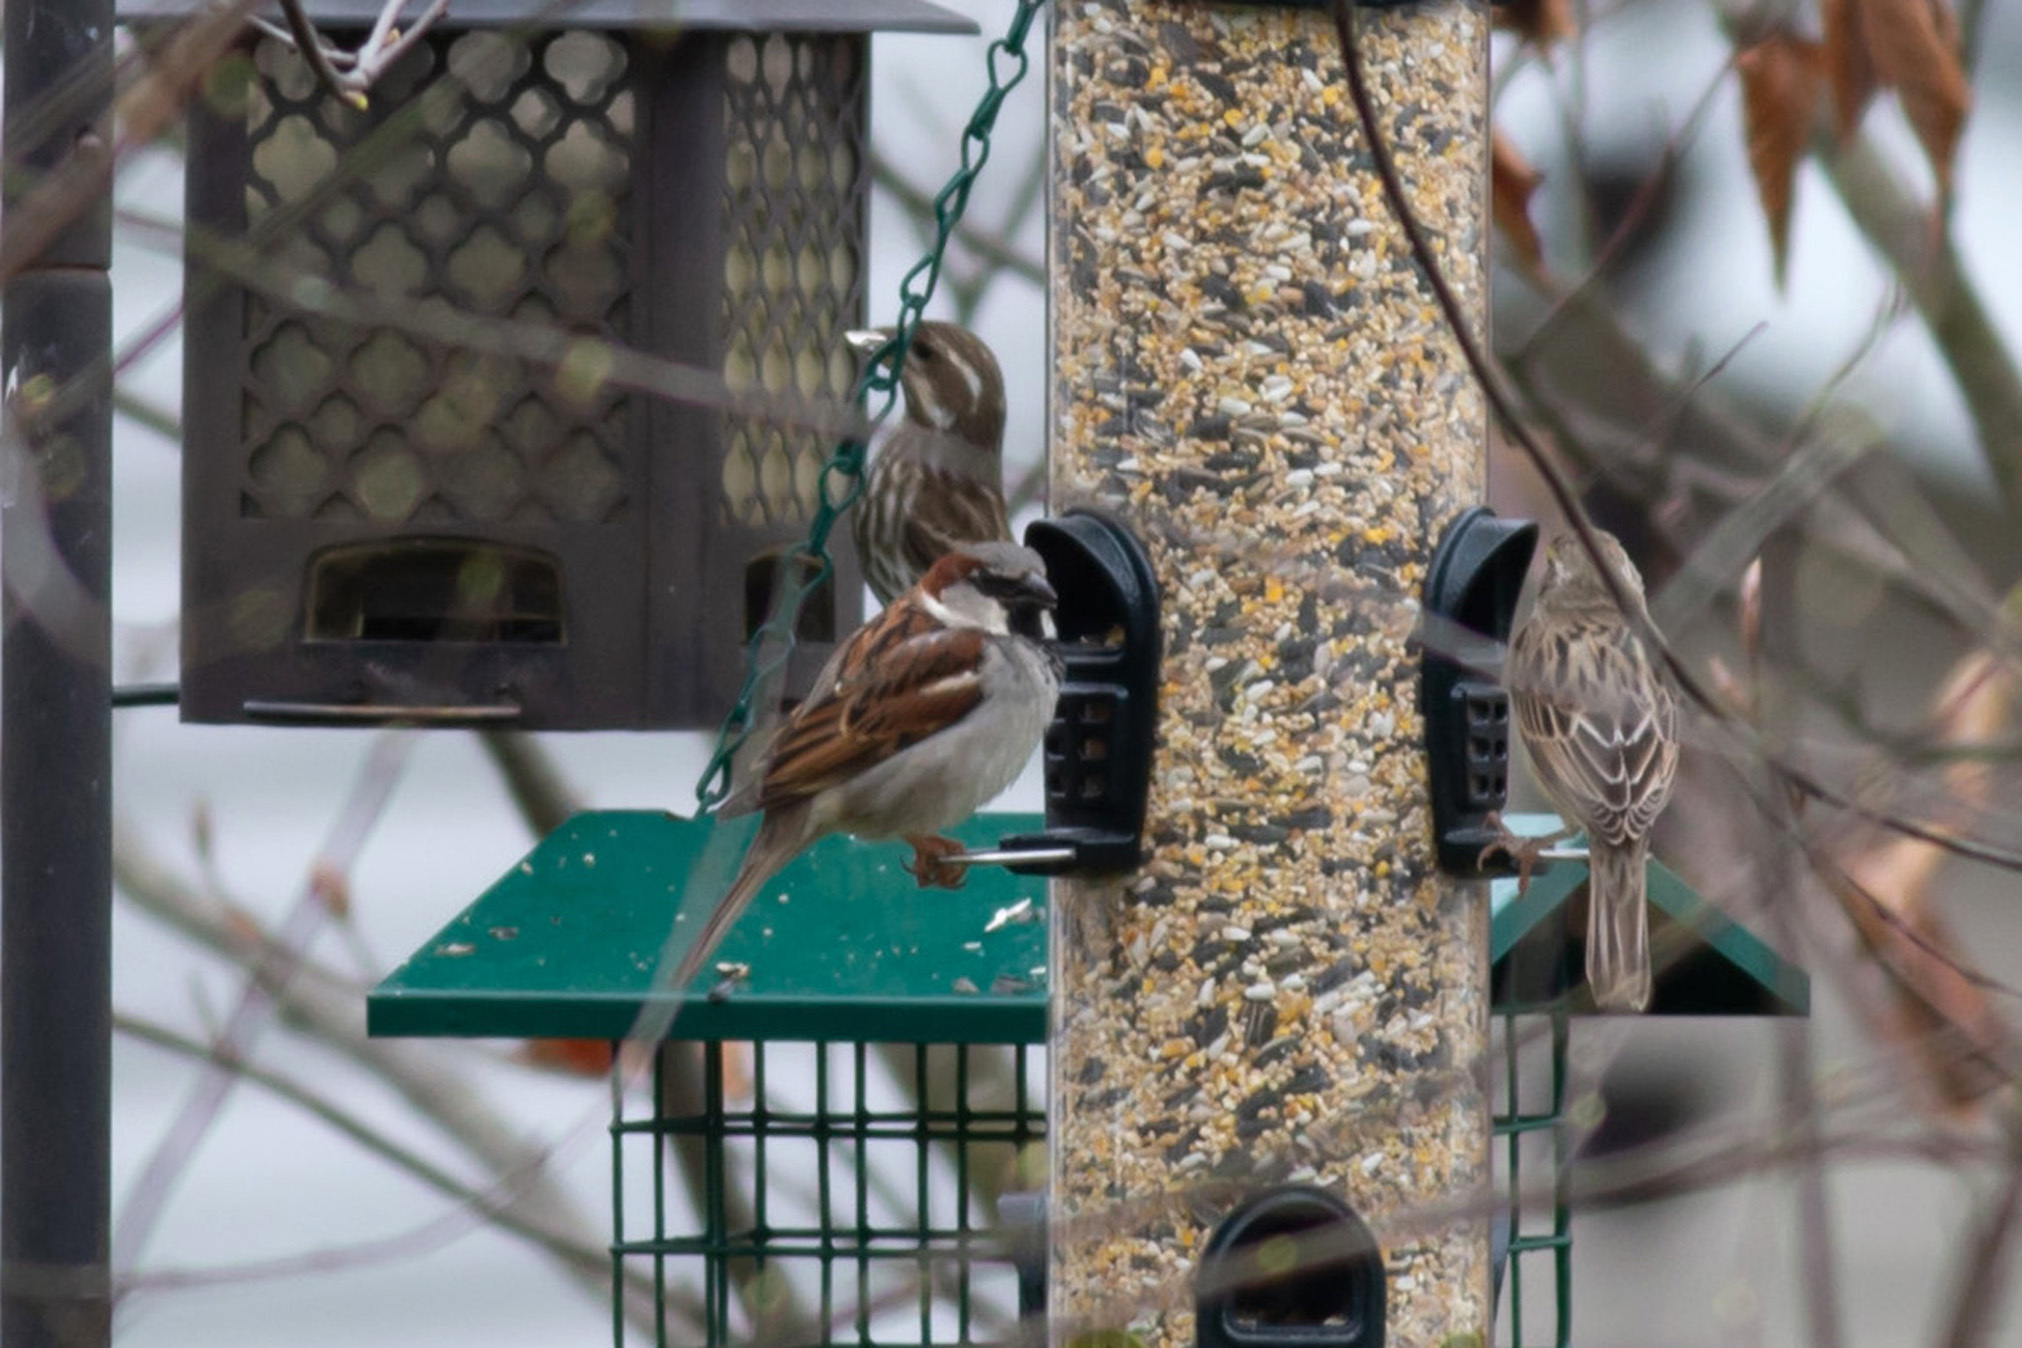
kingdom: Animalia
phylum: Chordata
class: Aves
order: Passeriformes
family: Passeridae
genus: Passer
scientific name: Passer domesticus
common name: House sparrow
